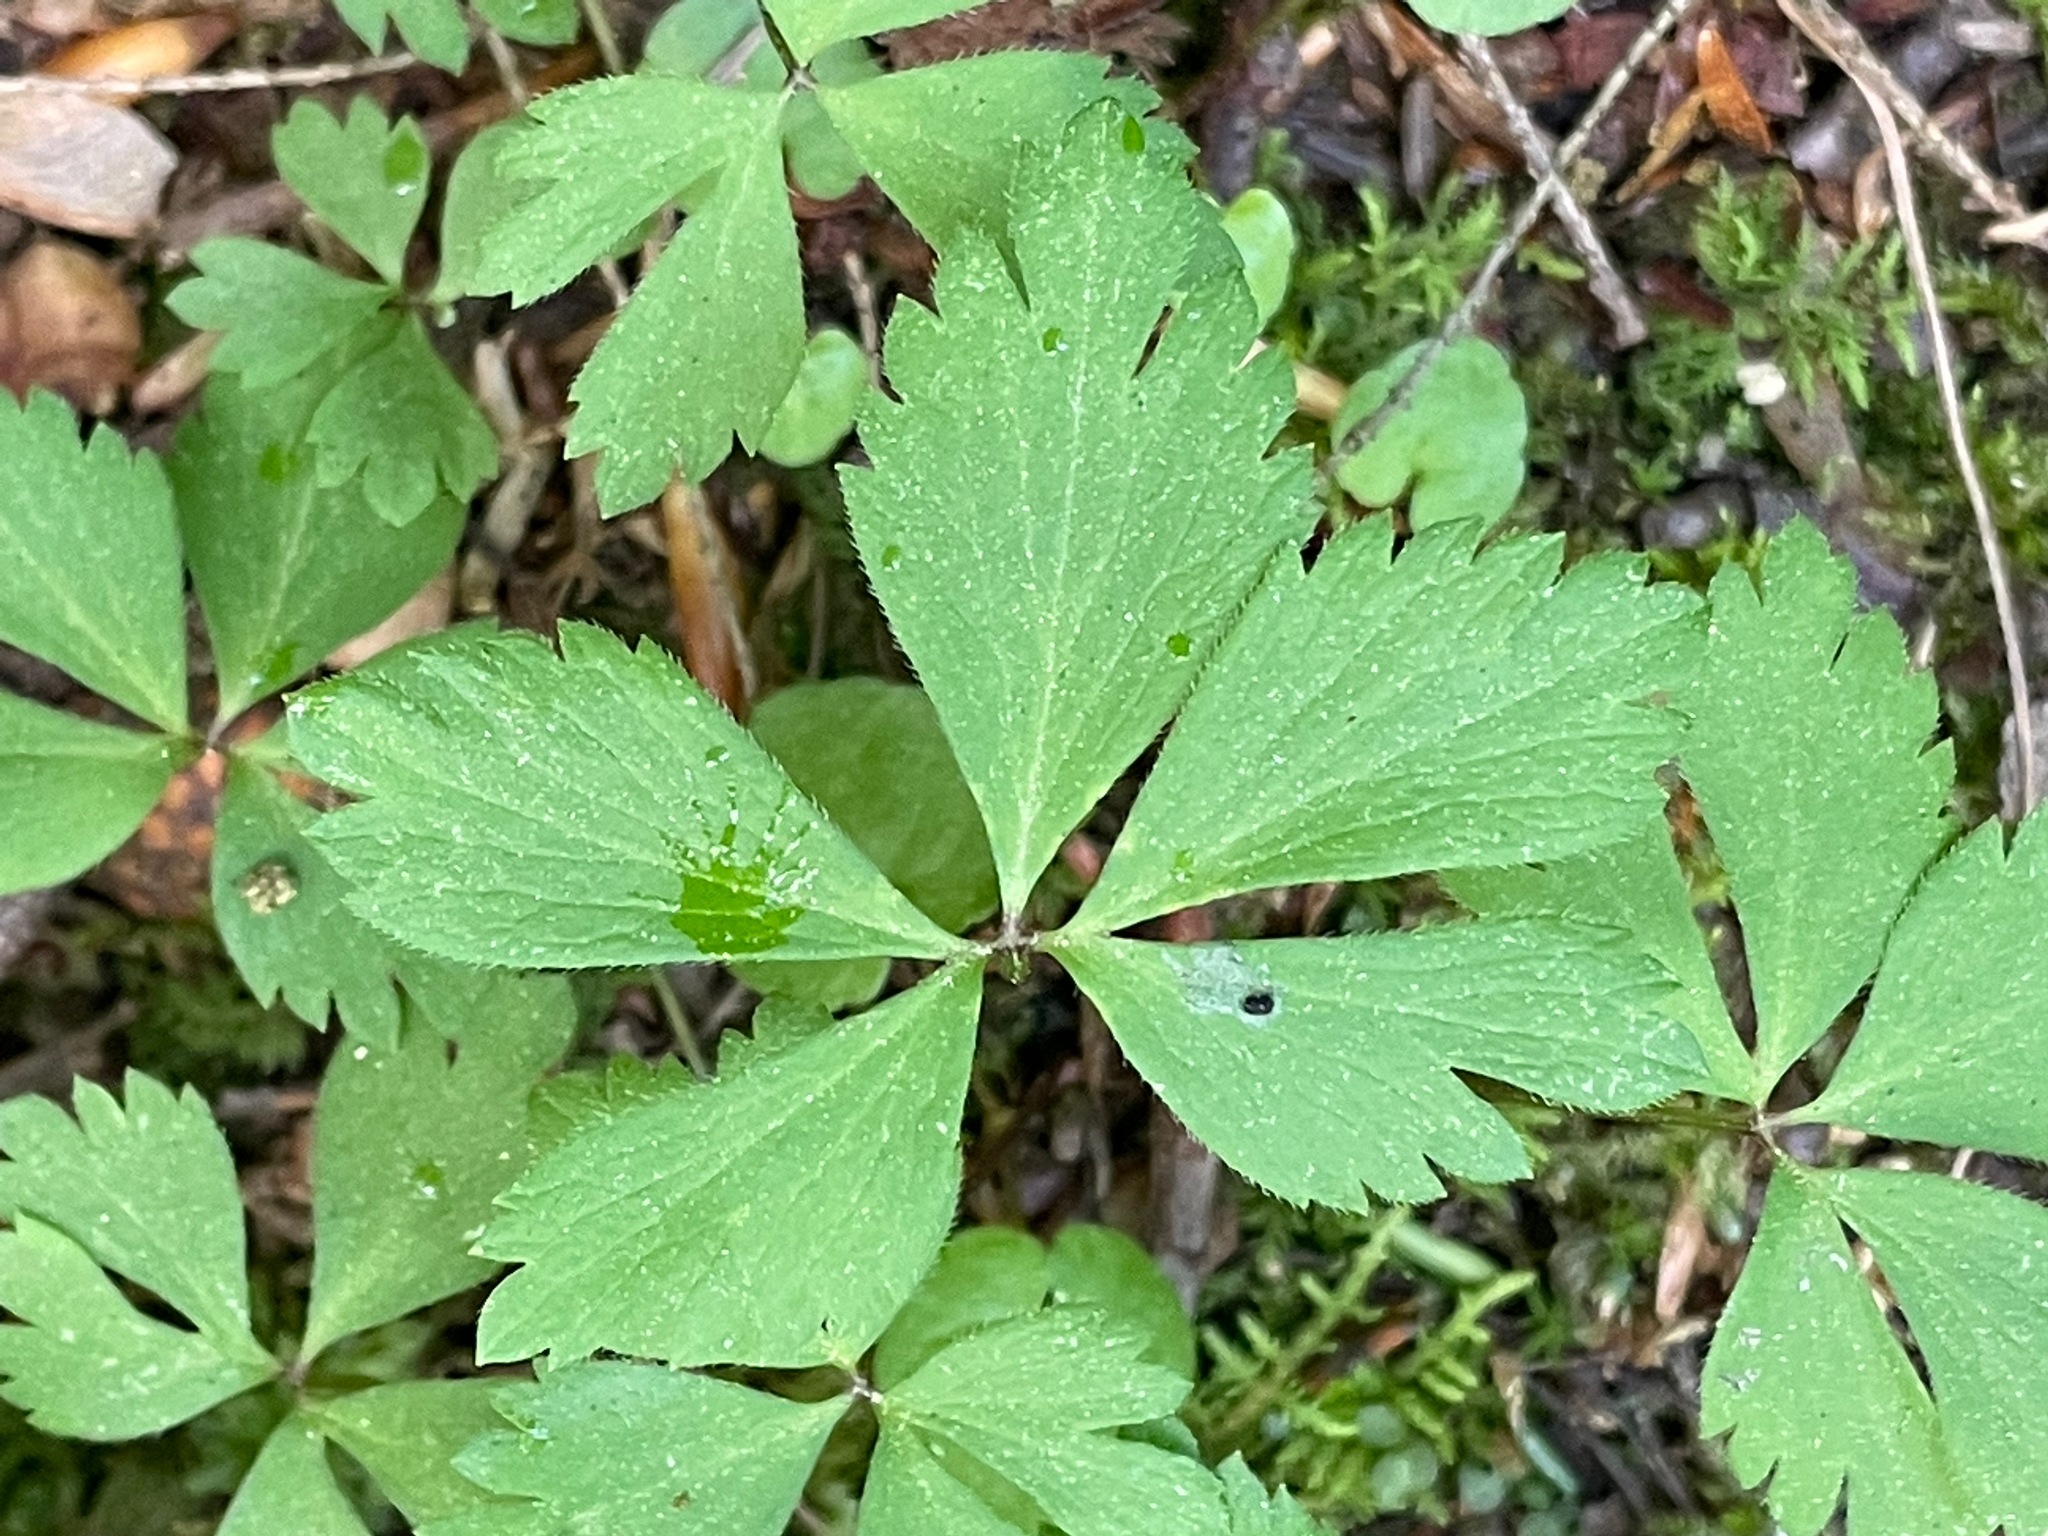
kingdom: Plantae
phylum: Tracheophyta
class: Magnoliopsida
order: Ranunculales
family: Ranunculaceae
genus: Anemone
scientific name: Anemone quinquefolia
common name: Wood anemone
